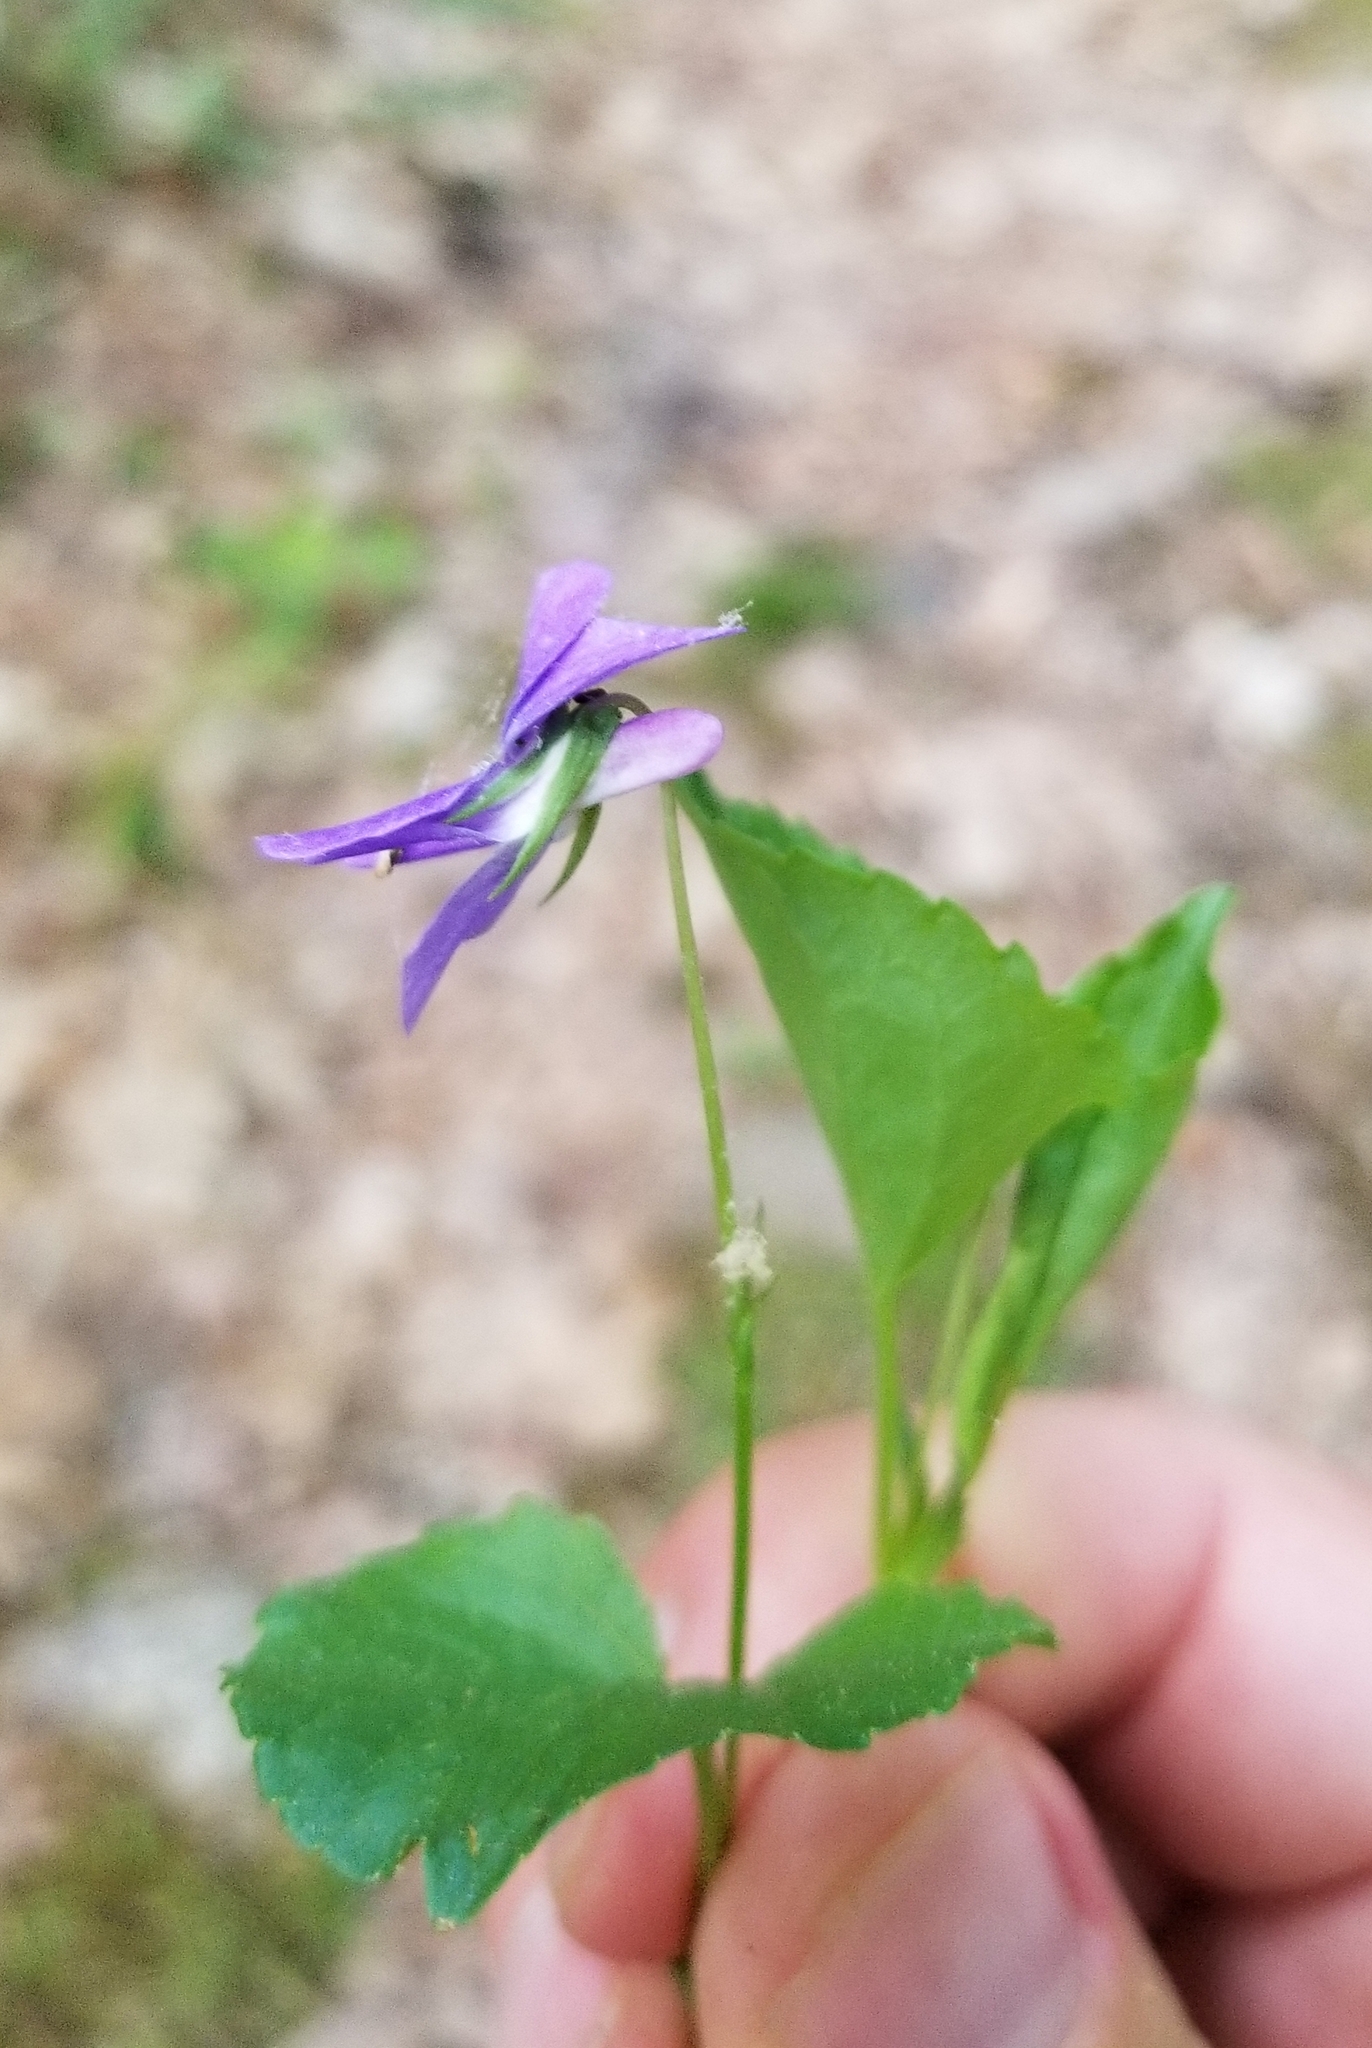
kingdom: Plantae
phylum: Tracheophyta
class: Magnoliopsida
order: Malpighiales
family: Violaceae
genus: Viola
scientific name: Viola labradorica
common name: Labrador violet
